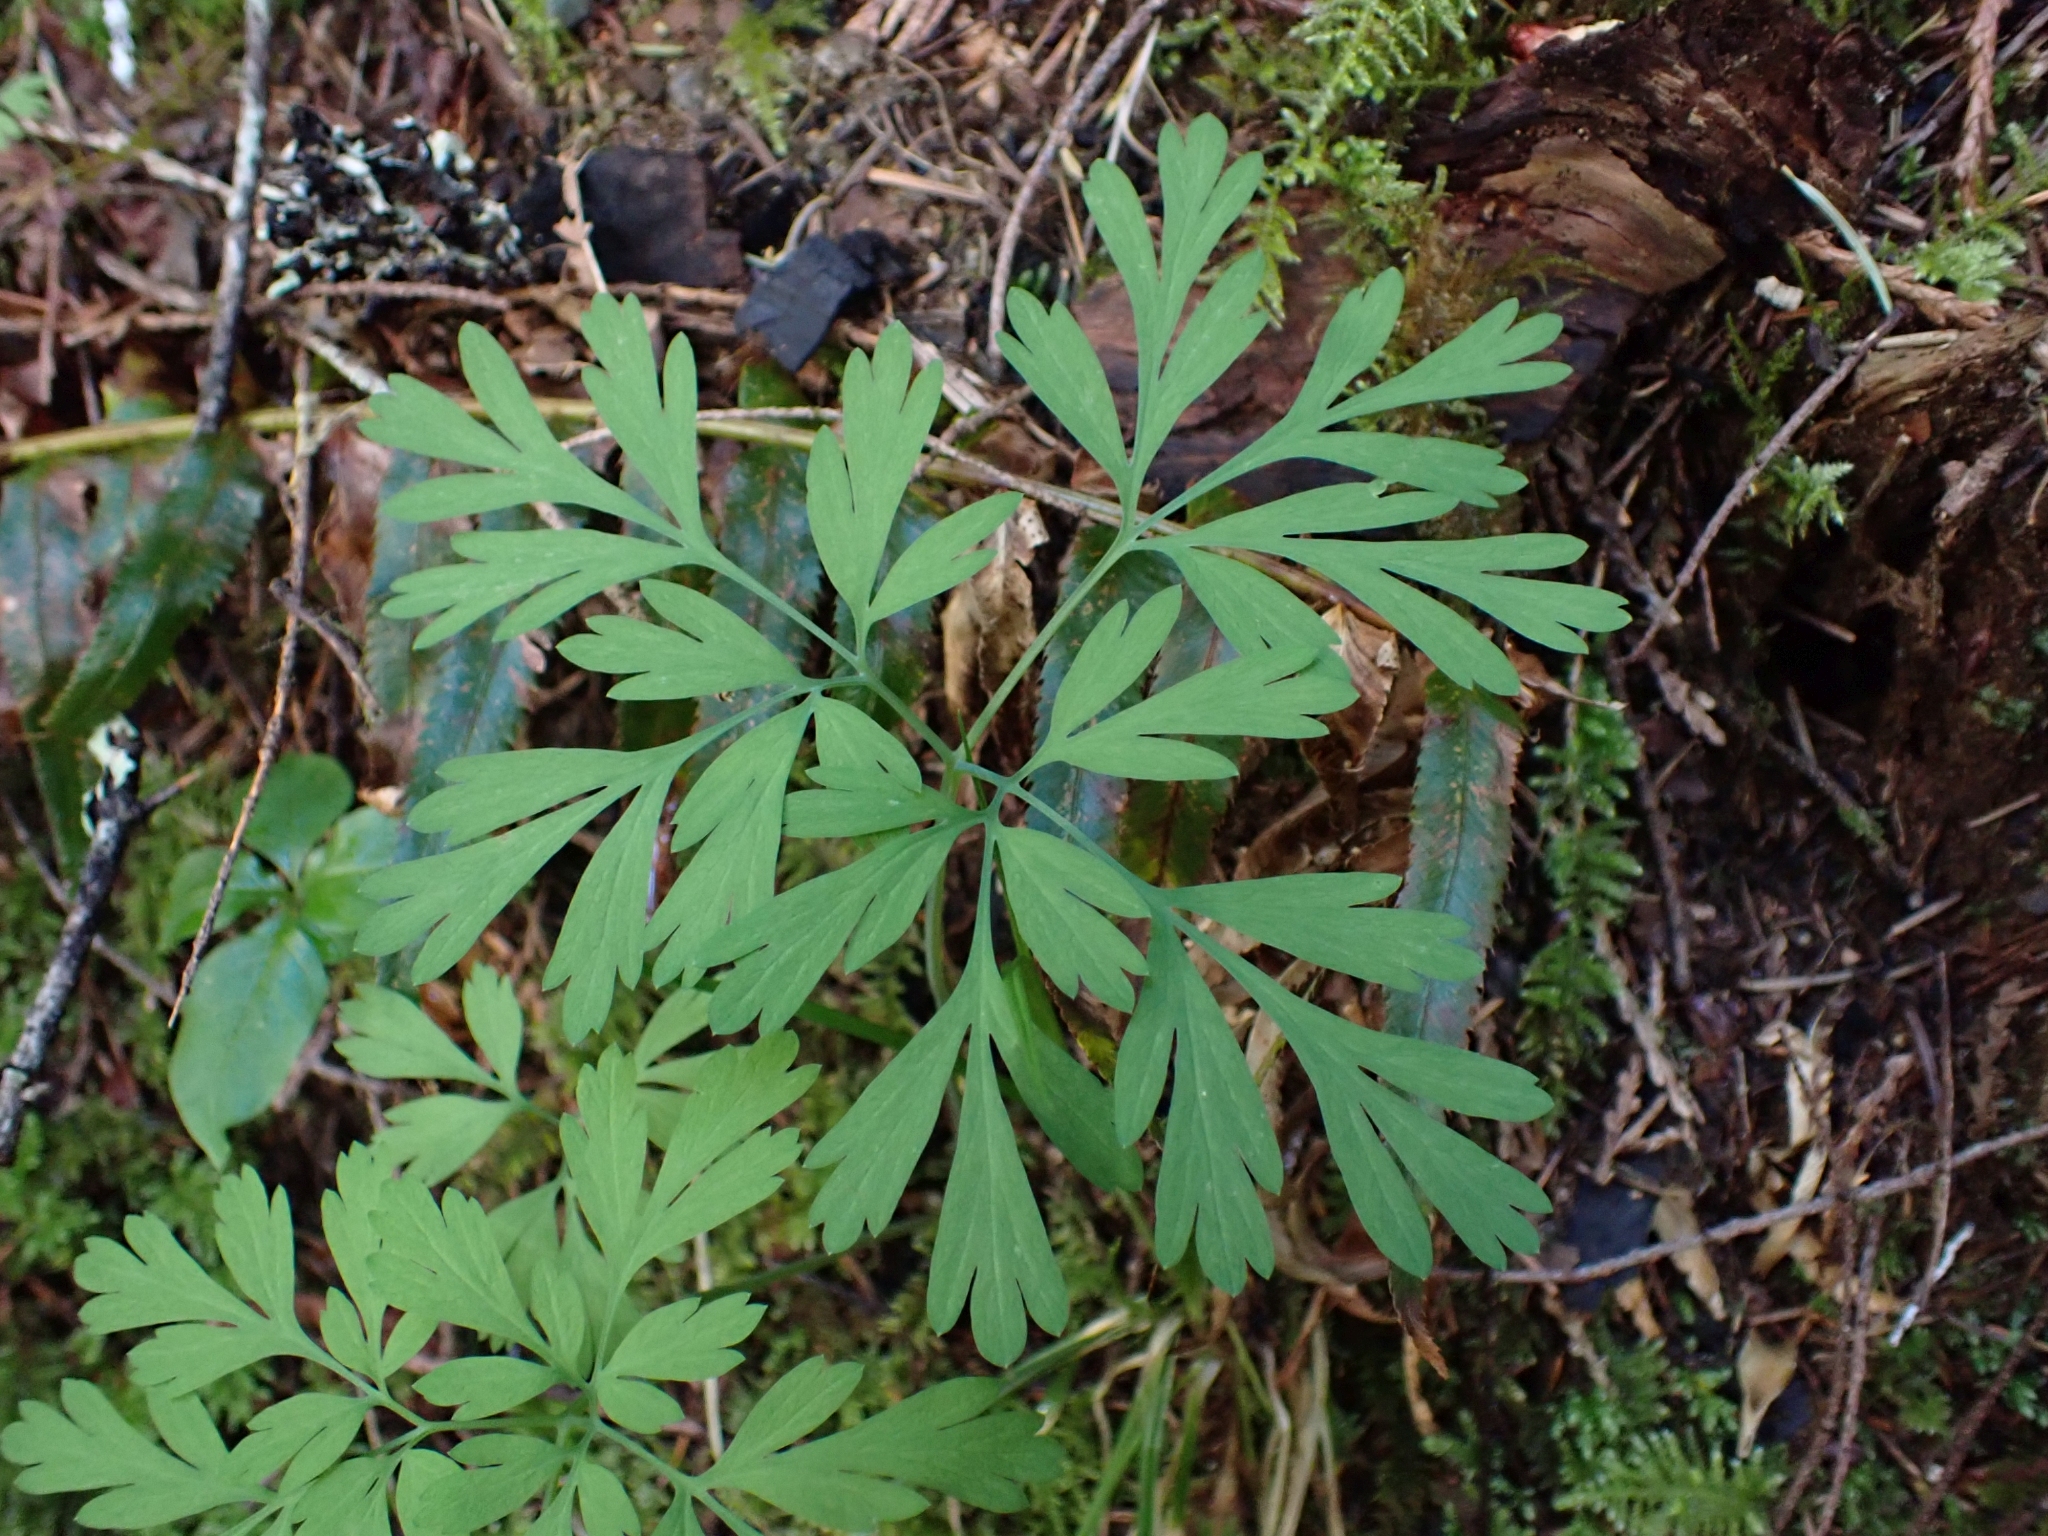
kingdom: Plantae
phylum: Tracheophyta
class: Magnoliopsida
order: Ranunculales
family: Papaveraceae
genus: Dicentra
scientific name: Dicentra formosa
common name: Bleeding-heart
